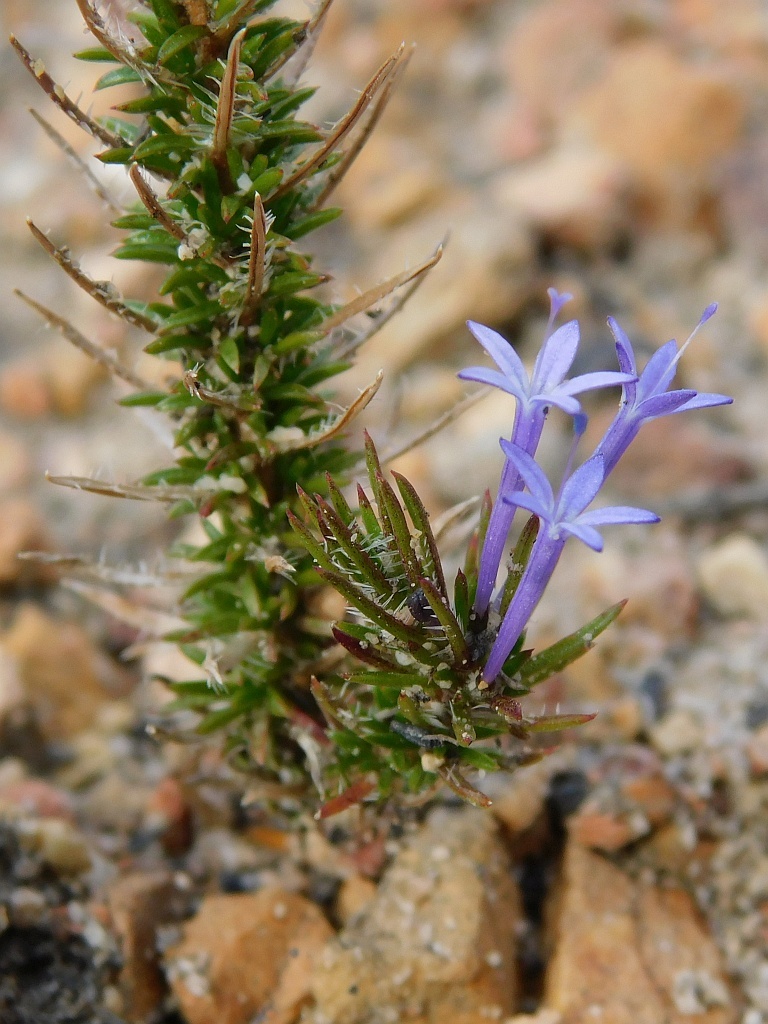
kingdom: Plantae
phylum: Tracheophyta
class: Magnoliopsida
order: Asterales
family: Campanulaceae
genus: Merciera
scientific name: Merciera eckloniana
